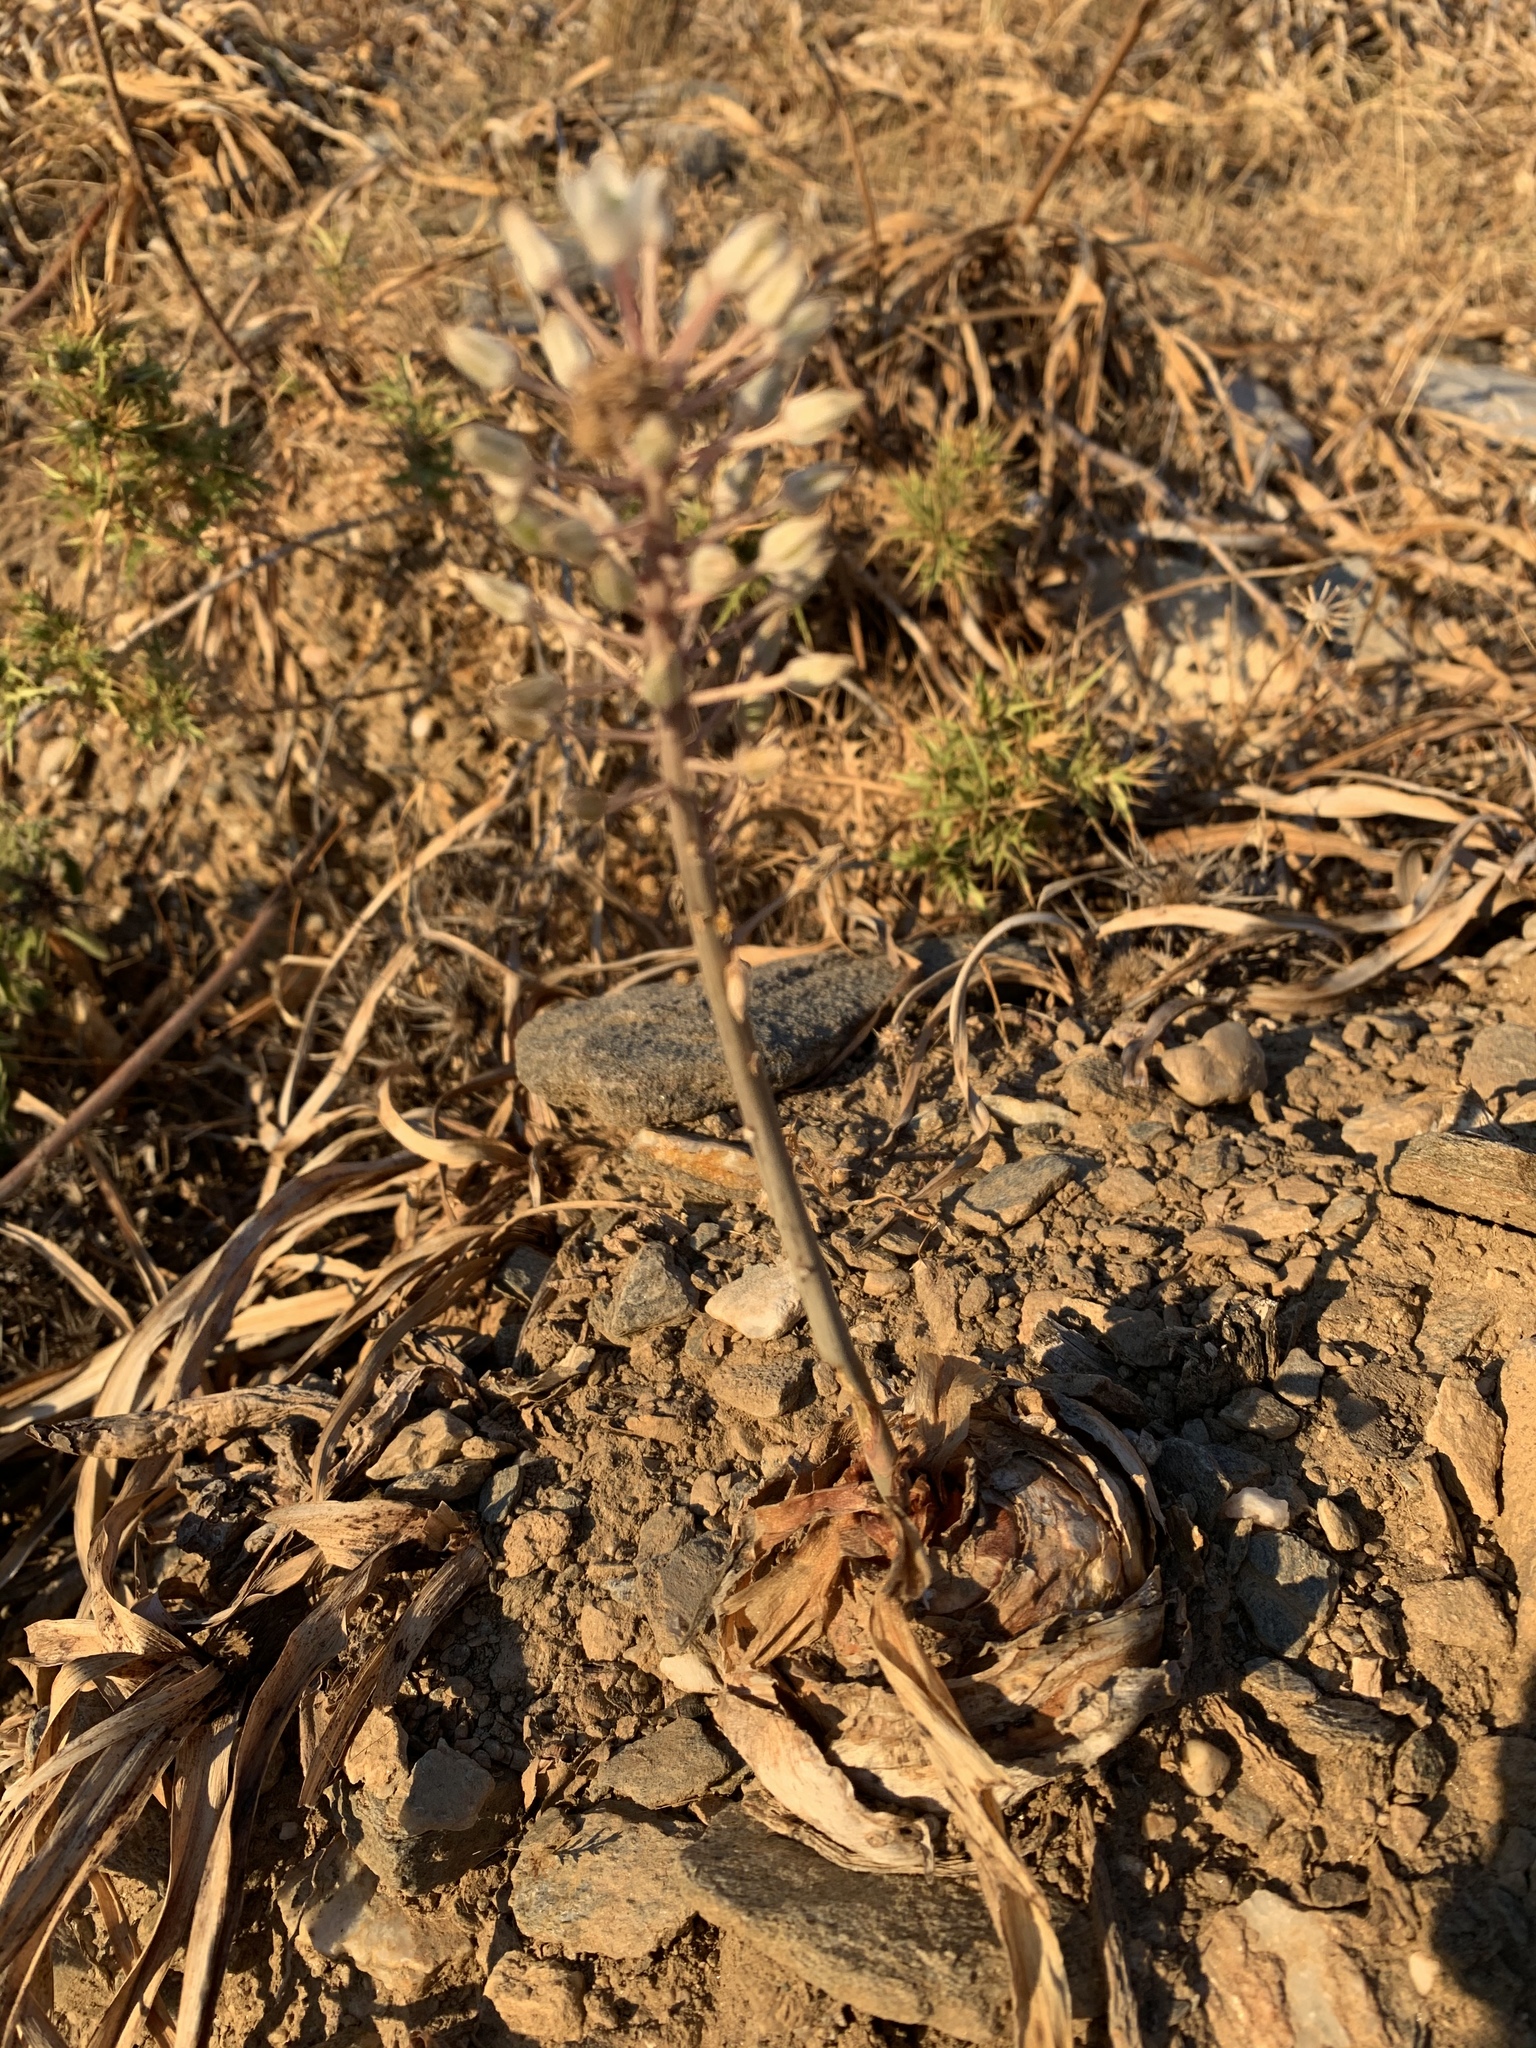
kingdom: Plantae
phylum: Tracheophyta
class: Liliopsida
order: Asparagales
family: Asparagaceae
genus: Drimia
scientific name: Drimia numidica
